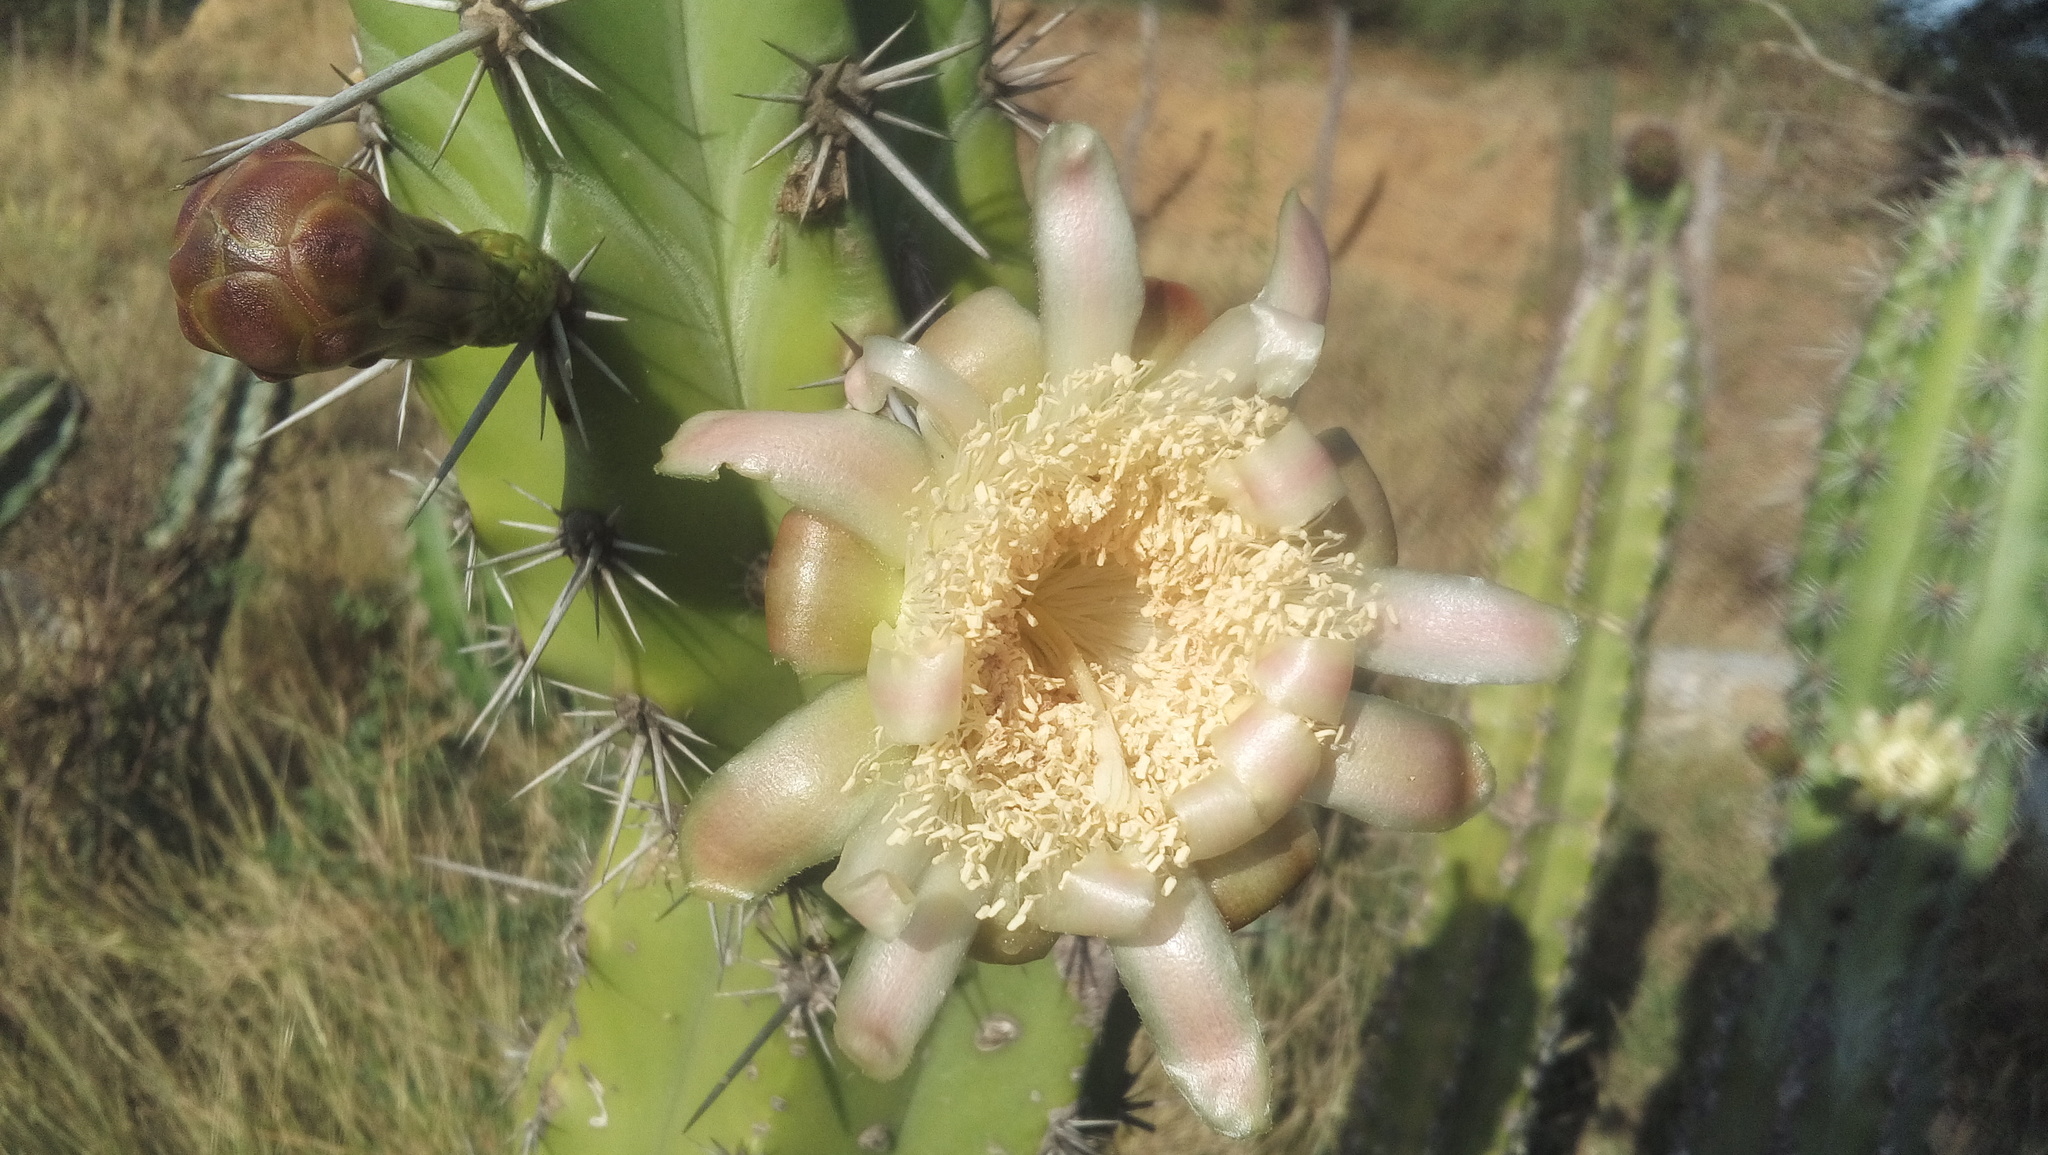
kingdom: Plantae
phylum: Tracheophyta
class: Magnoliopsida
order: Caryophyllales
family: Cactaceae
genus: Stenocereus
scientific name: Stenocereus pruinosus
